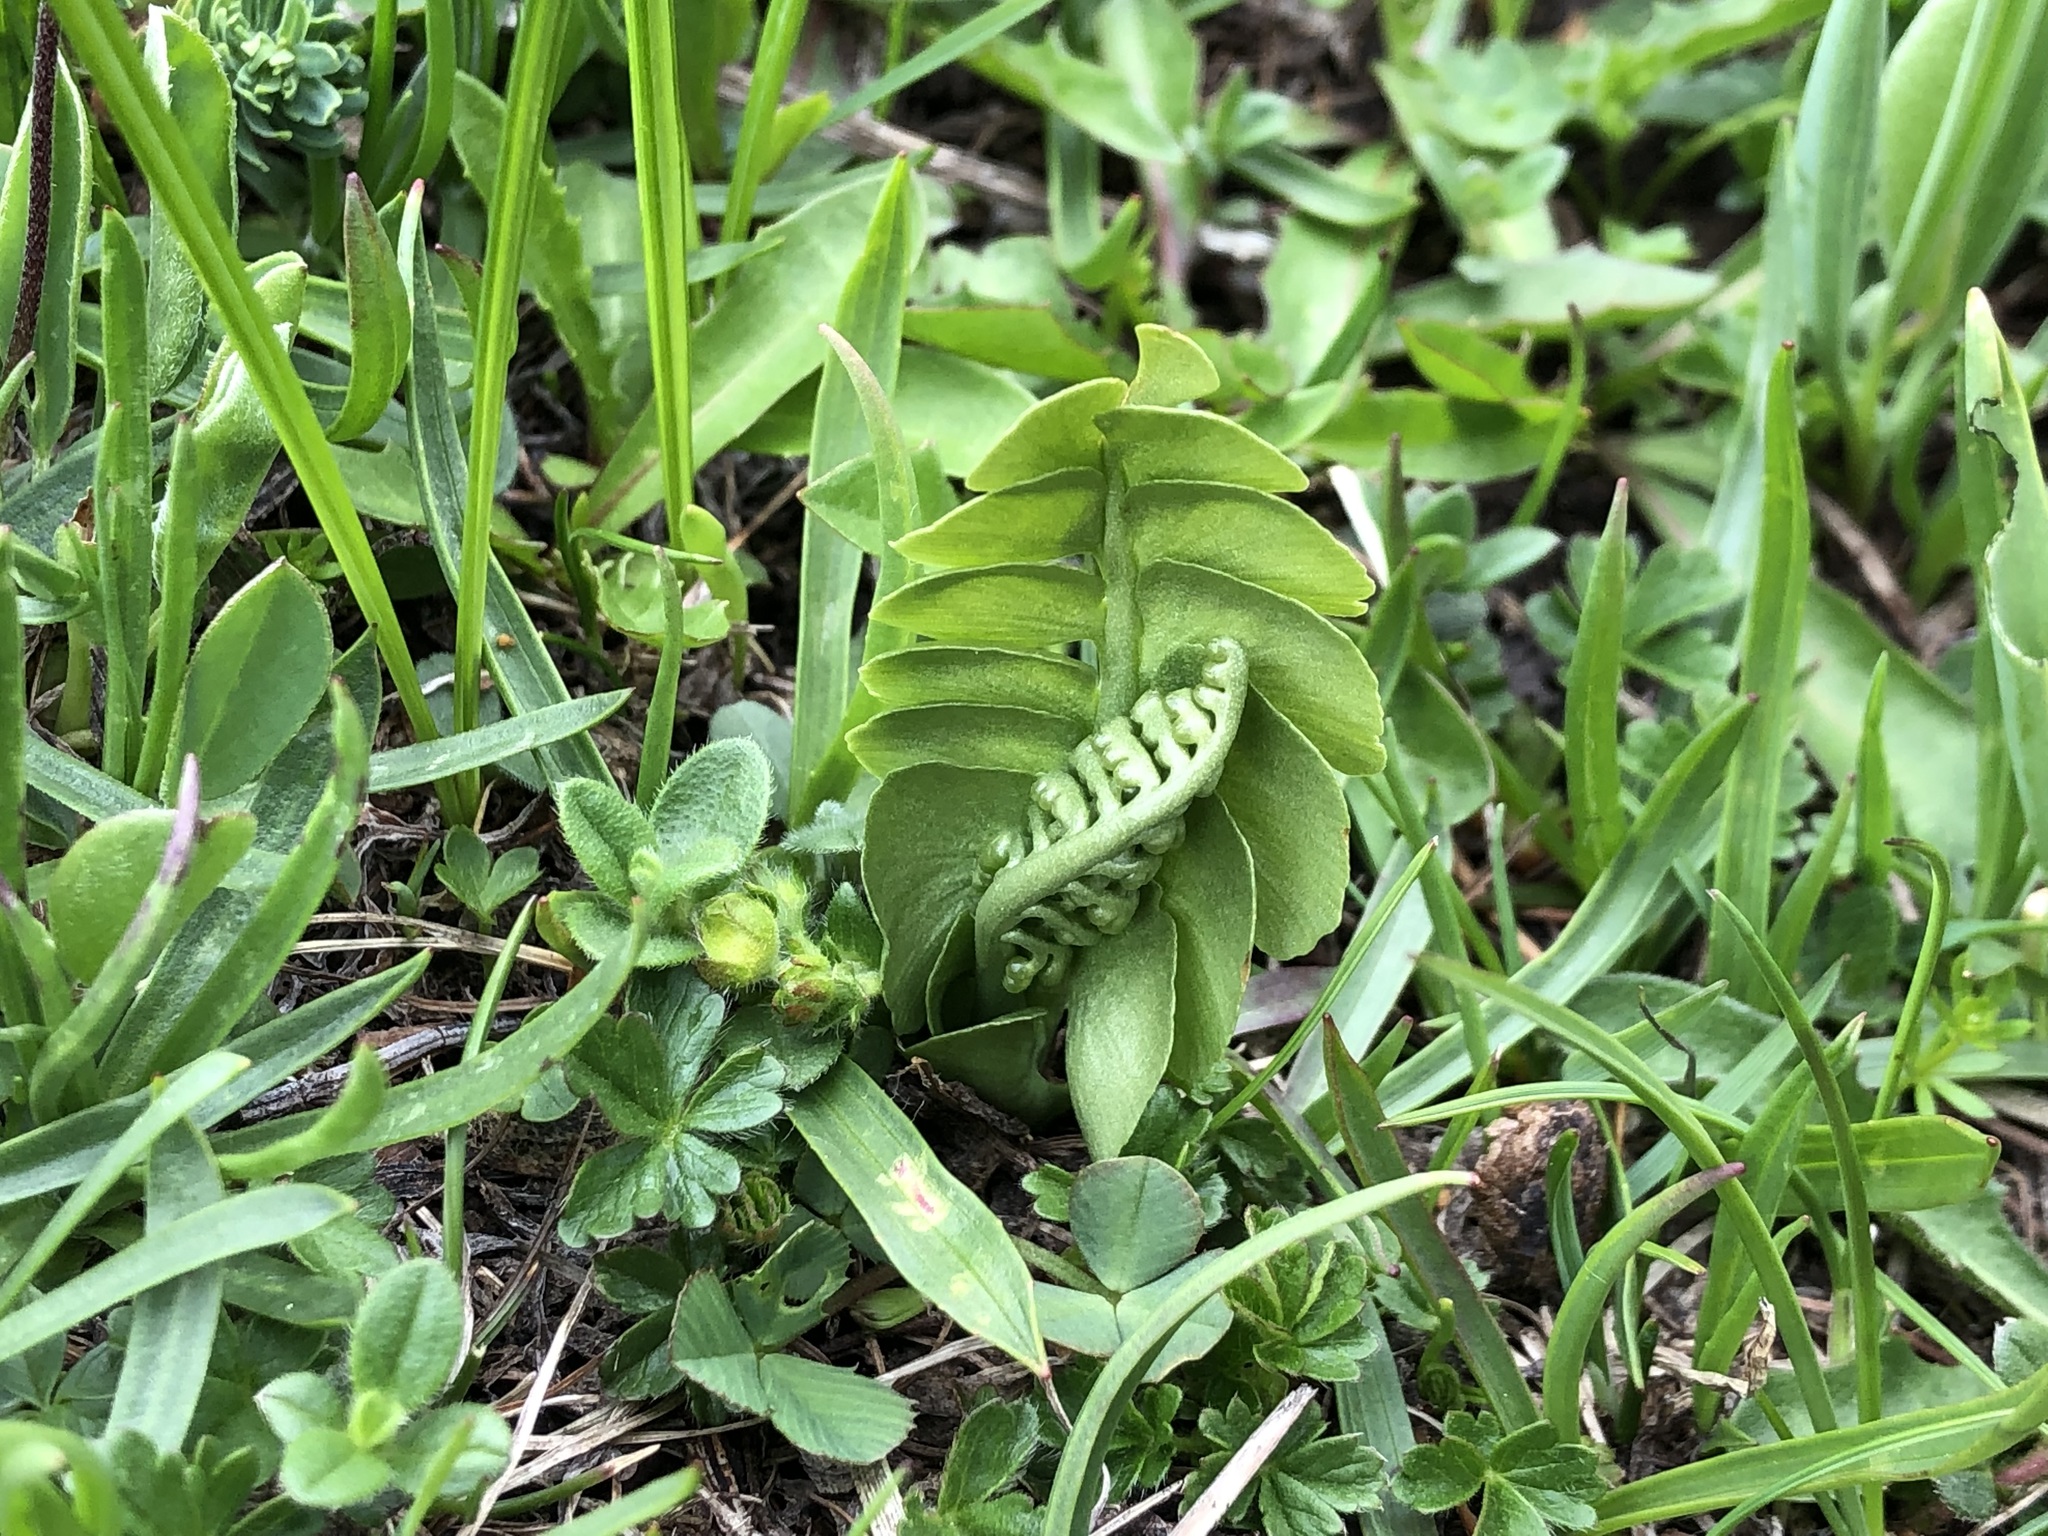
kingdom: Plantae
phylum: Tracheophyta
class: Polypodiopsida
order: Ophioglossales
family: Ophioglossaceae
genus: Botrychium
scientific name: Botrychium lunaria
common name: Moonwort
